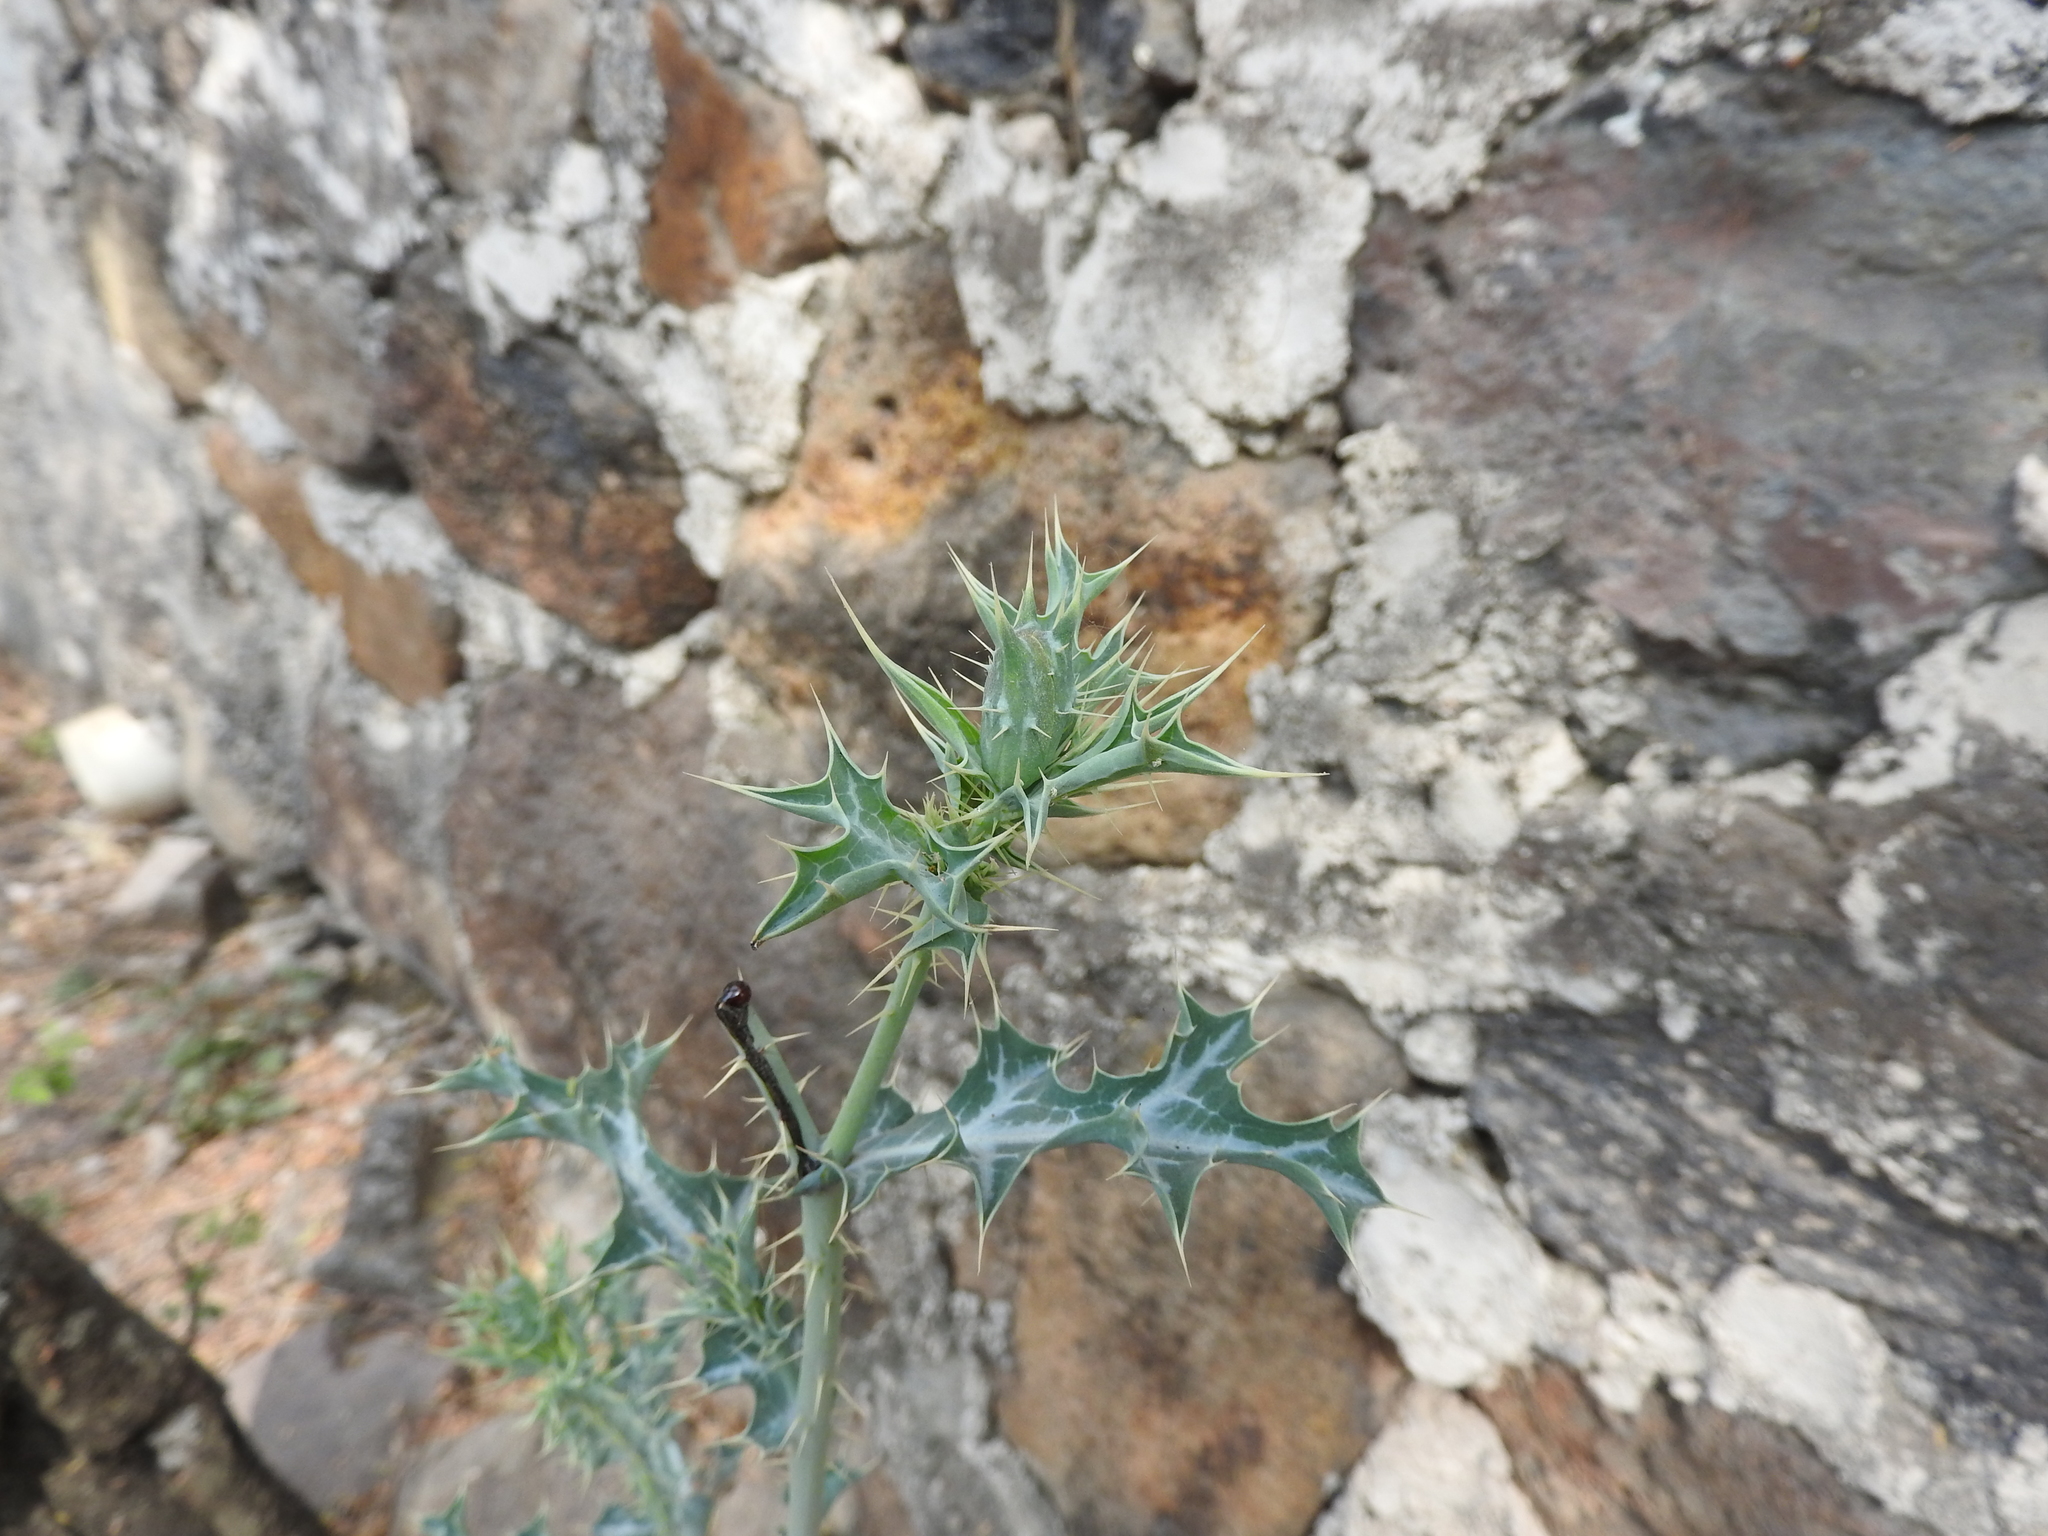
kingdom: Plantae
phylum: Tracheophyta
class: Magnoliopsida
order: Ranunculales
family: Papaveraceae
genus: Argemone
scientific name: Argemone ochroleuca
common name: White-flower mexican-poppy
